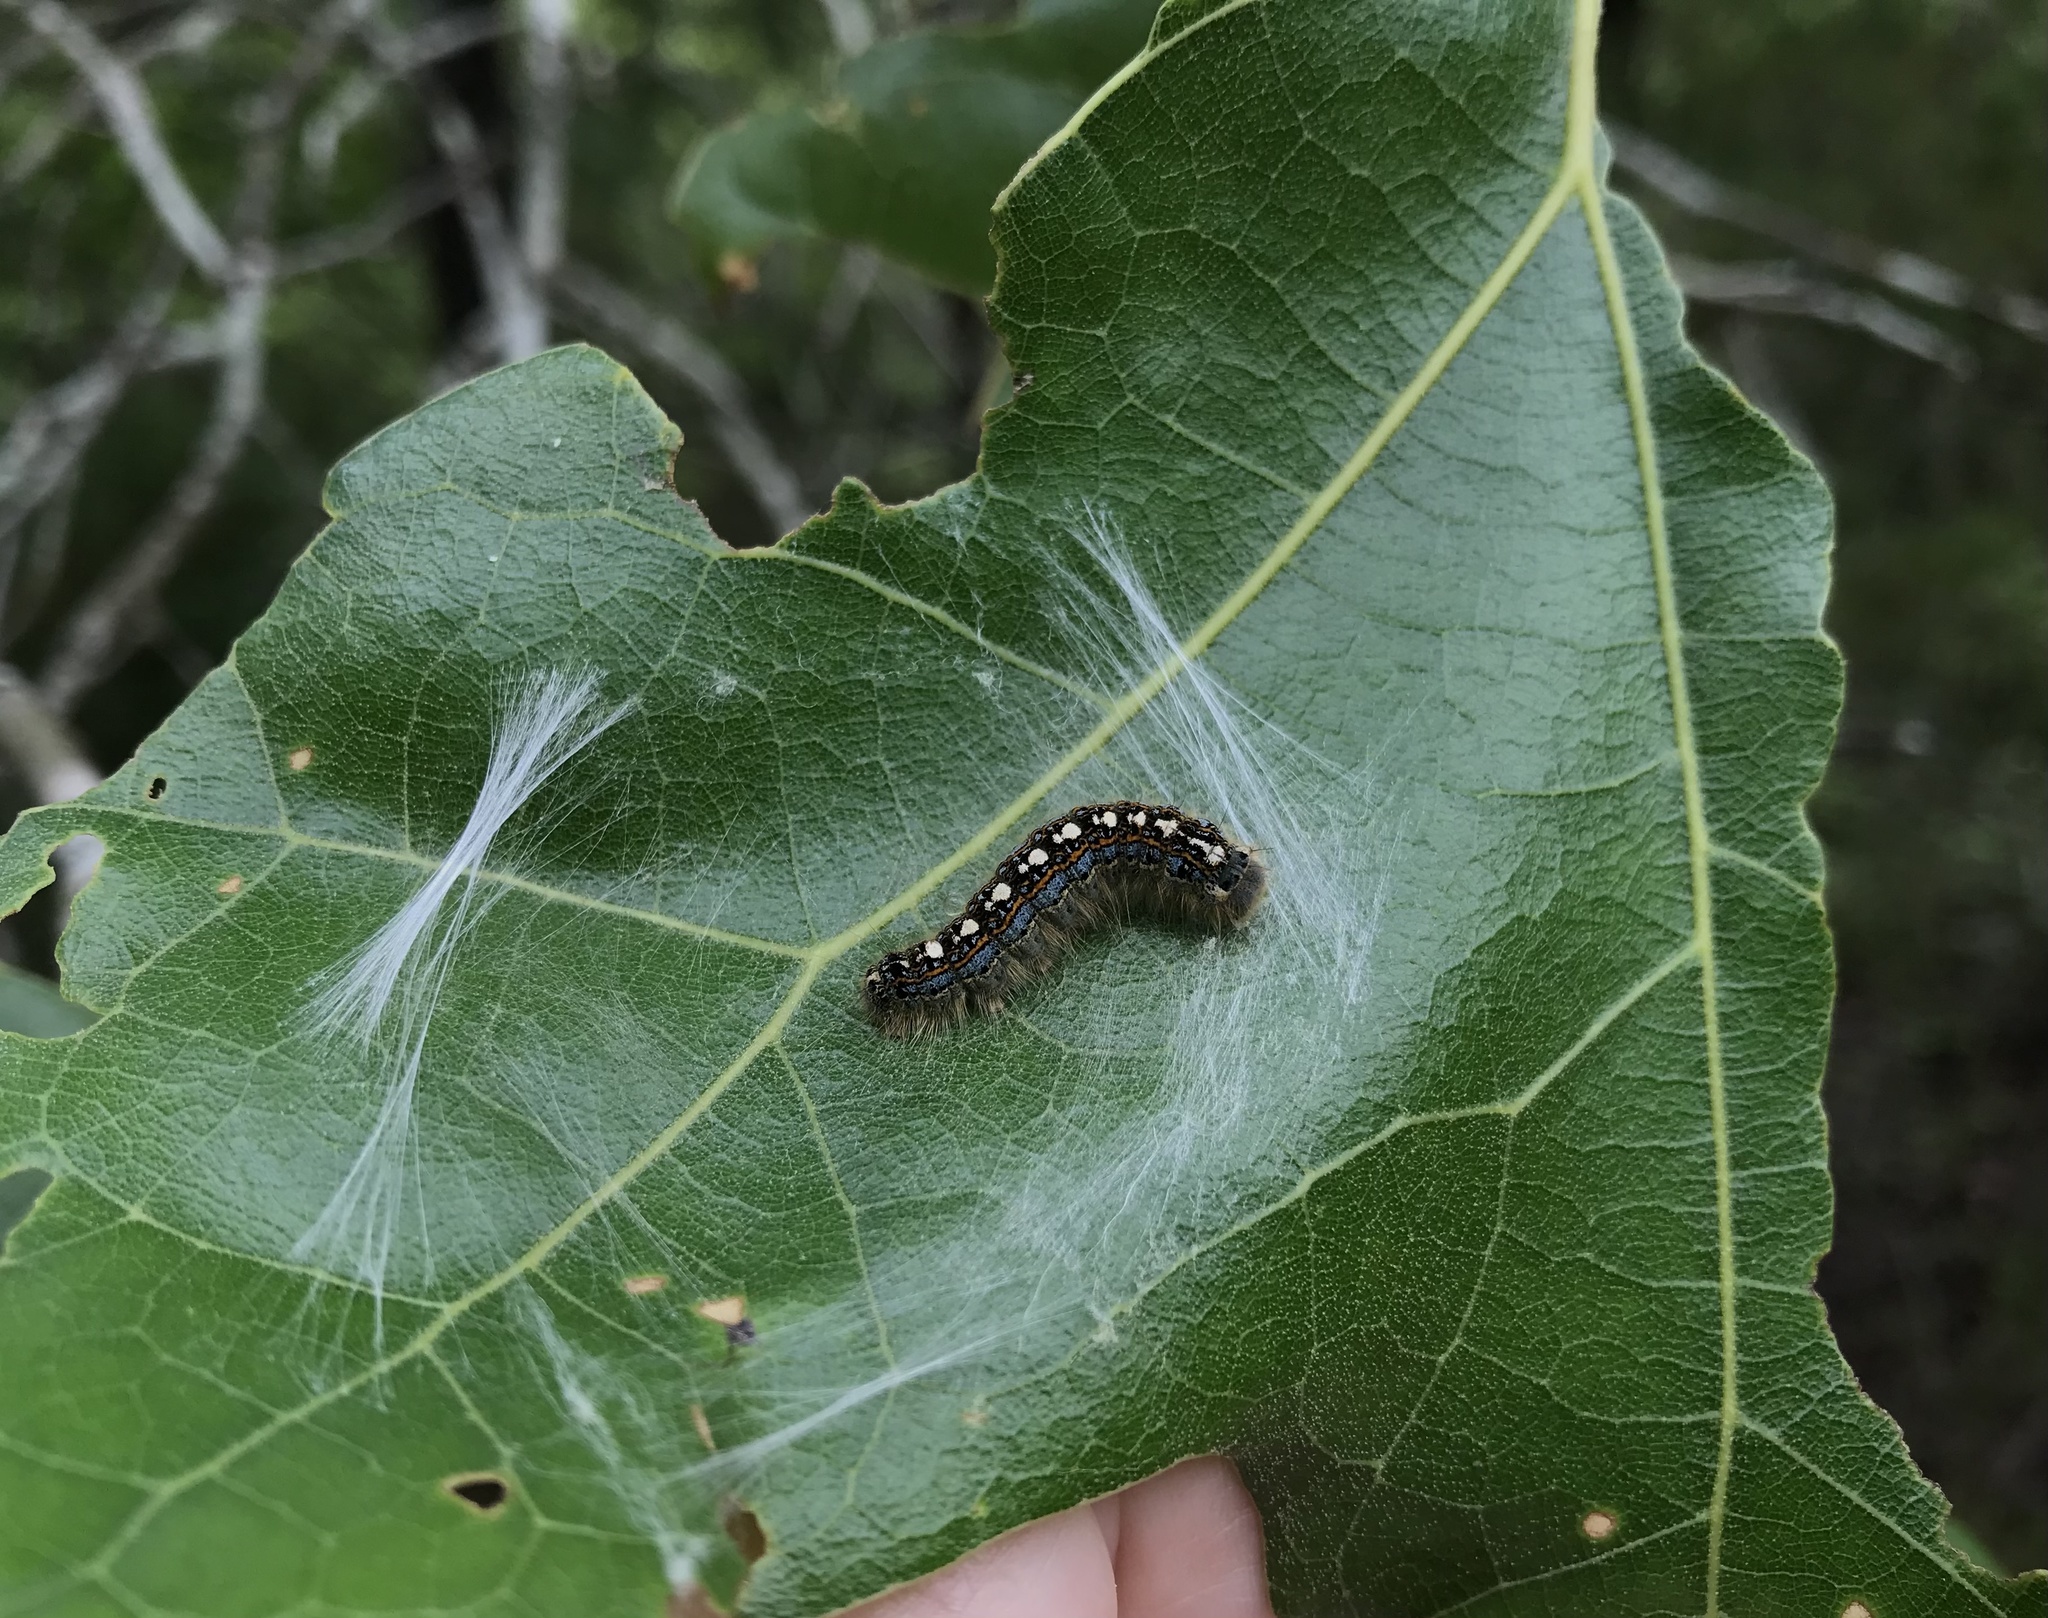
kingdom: Animalia
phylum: Arthropoda
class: Insecta
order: Lepidoptera
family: Lasiocampidae
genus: Malacosoma
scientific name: Malacosoma disstria
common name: Forest tent caterpillar
